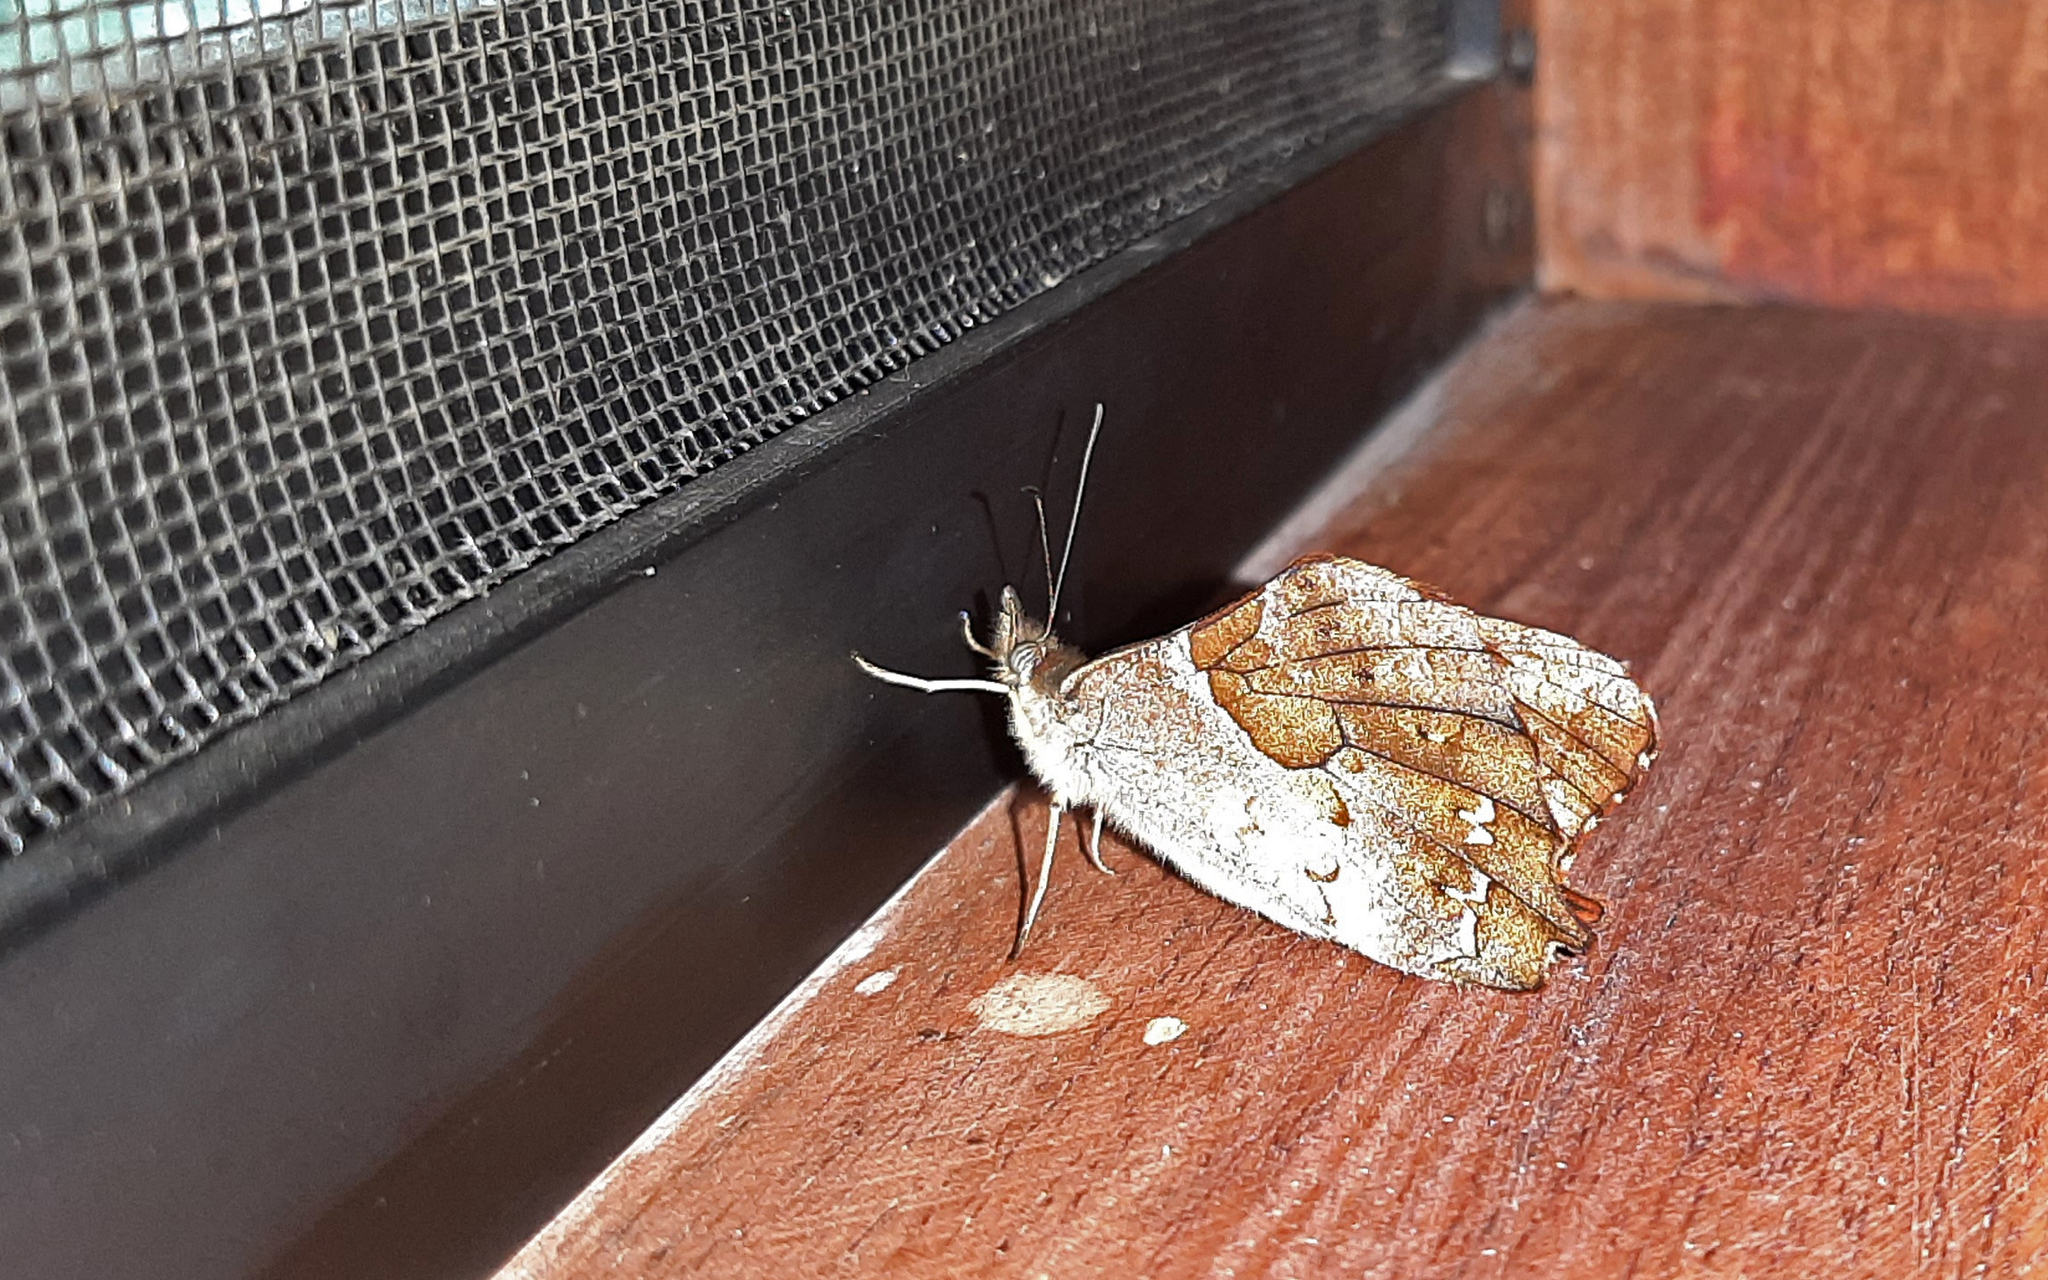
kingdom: Animalia
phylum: Arthropoda
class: Insecta
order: Lepidoptera
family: Nymphalidae
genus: Lasiophila
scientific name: Lasiophila orbifera
